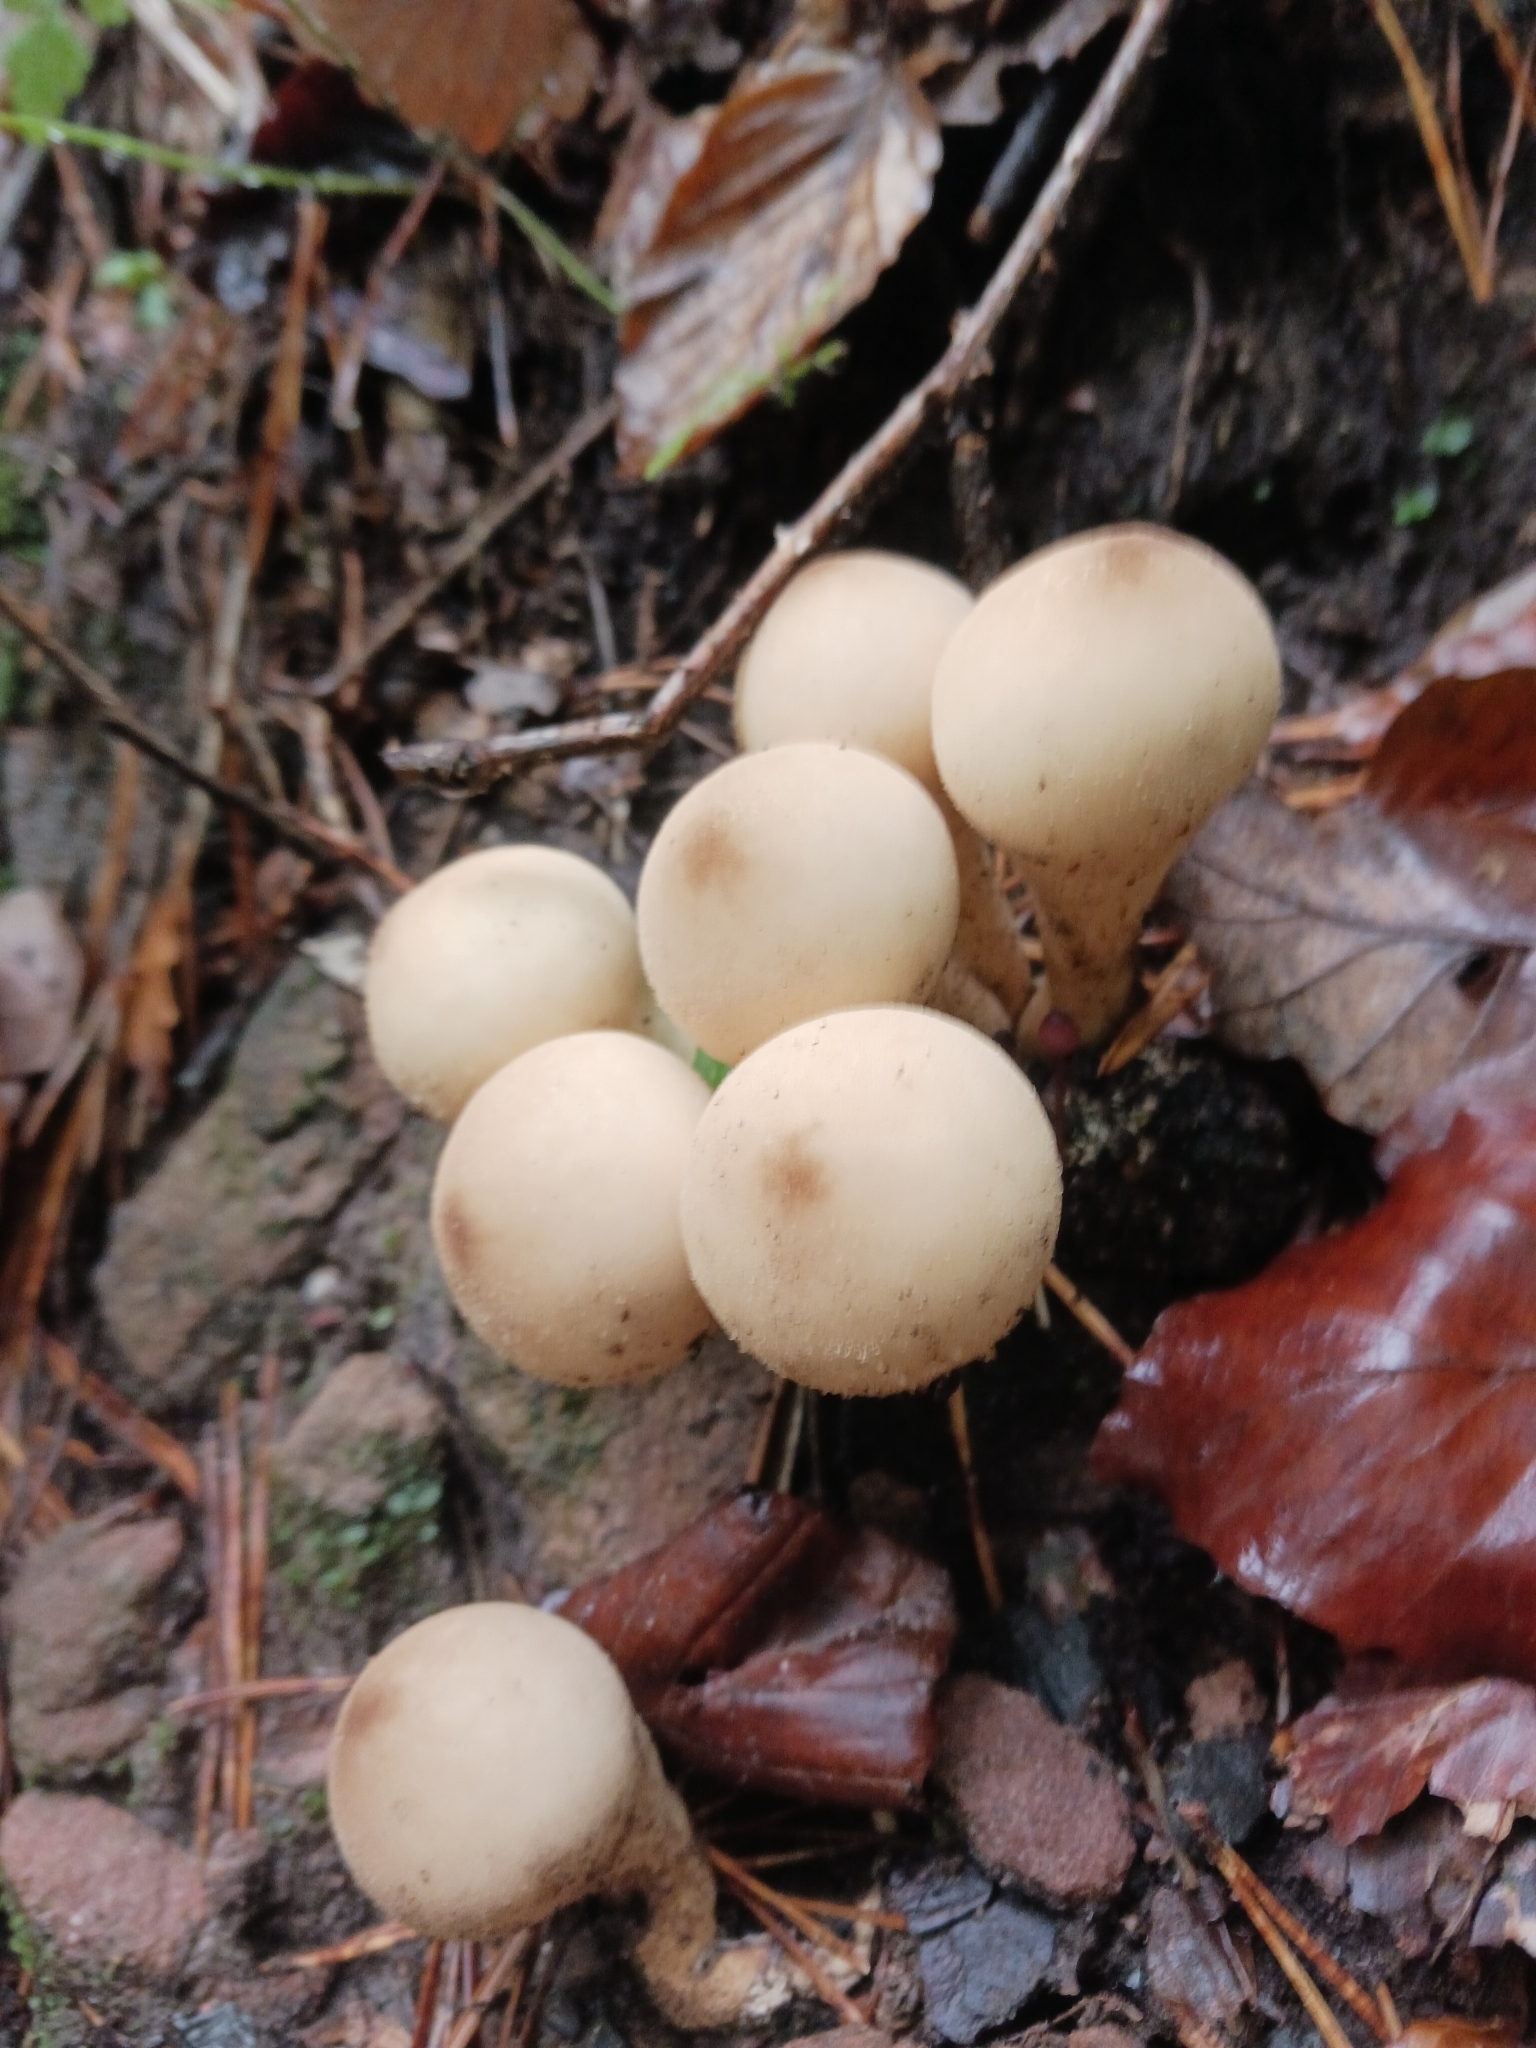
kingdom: Fungi
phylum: Basidiomycota
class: Agaricomycetes
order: Agaricales
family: Lycoperdaceae
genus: Apioperdon
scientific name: Apioperdon pyriforme
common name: Pear-shaped puffball
